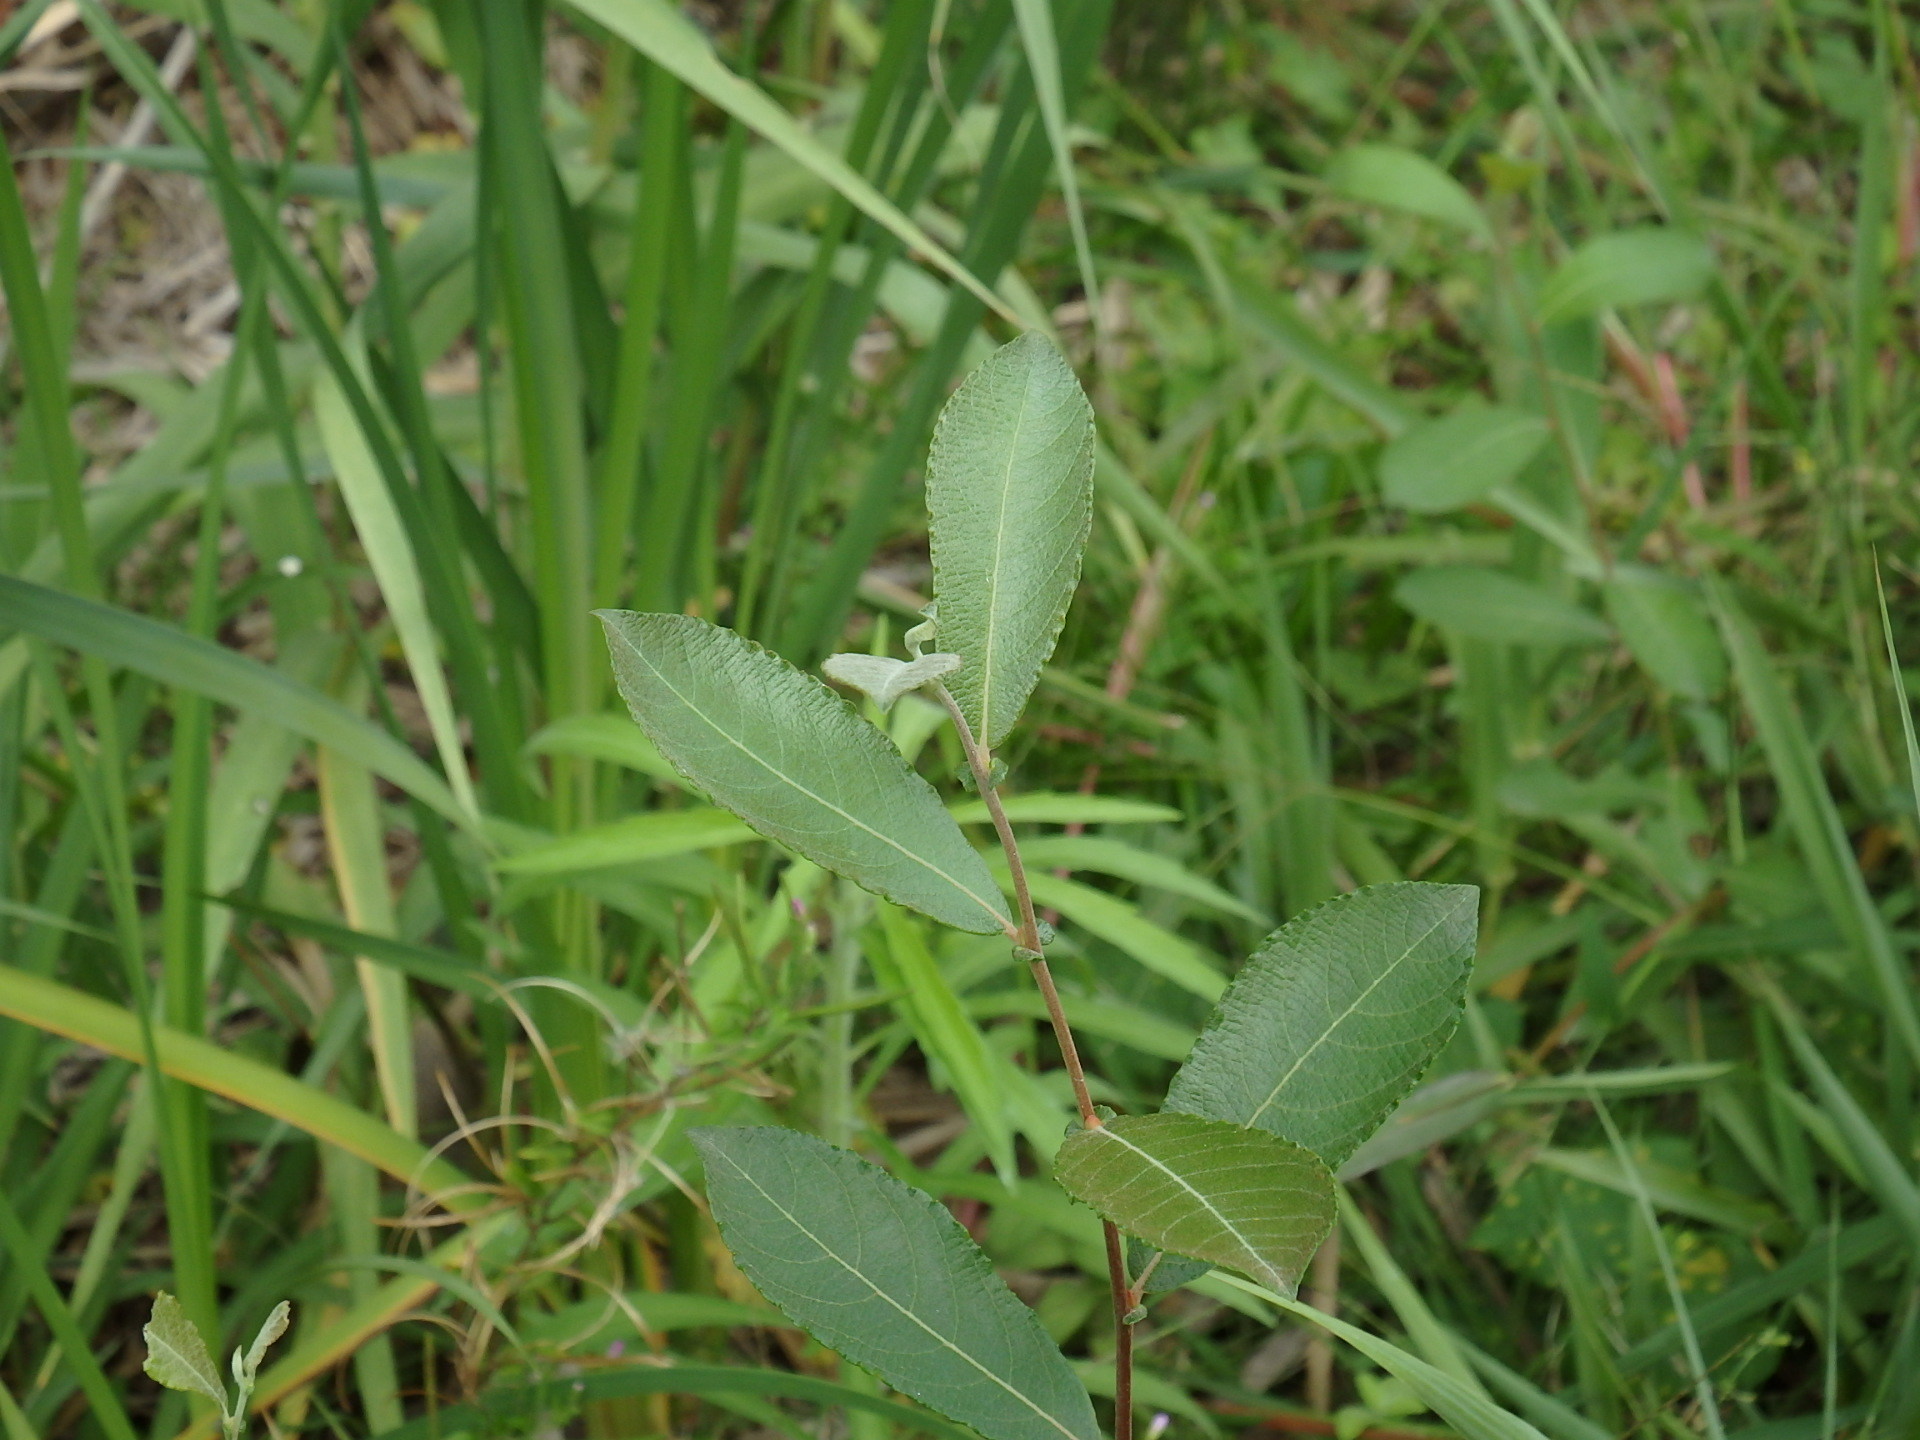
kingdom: Plantae
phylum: Tracheophyta
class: Magnoliopsida
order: Malpighiales
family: Salicaceae
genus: Salix
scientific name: Salix atrocinerea
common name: Rusty willow
